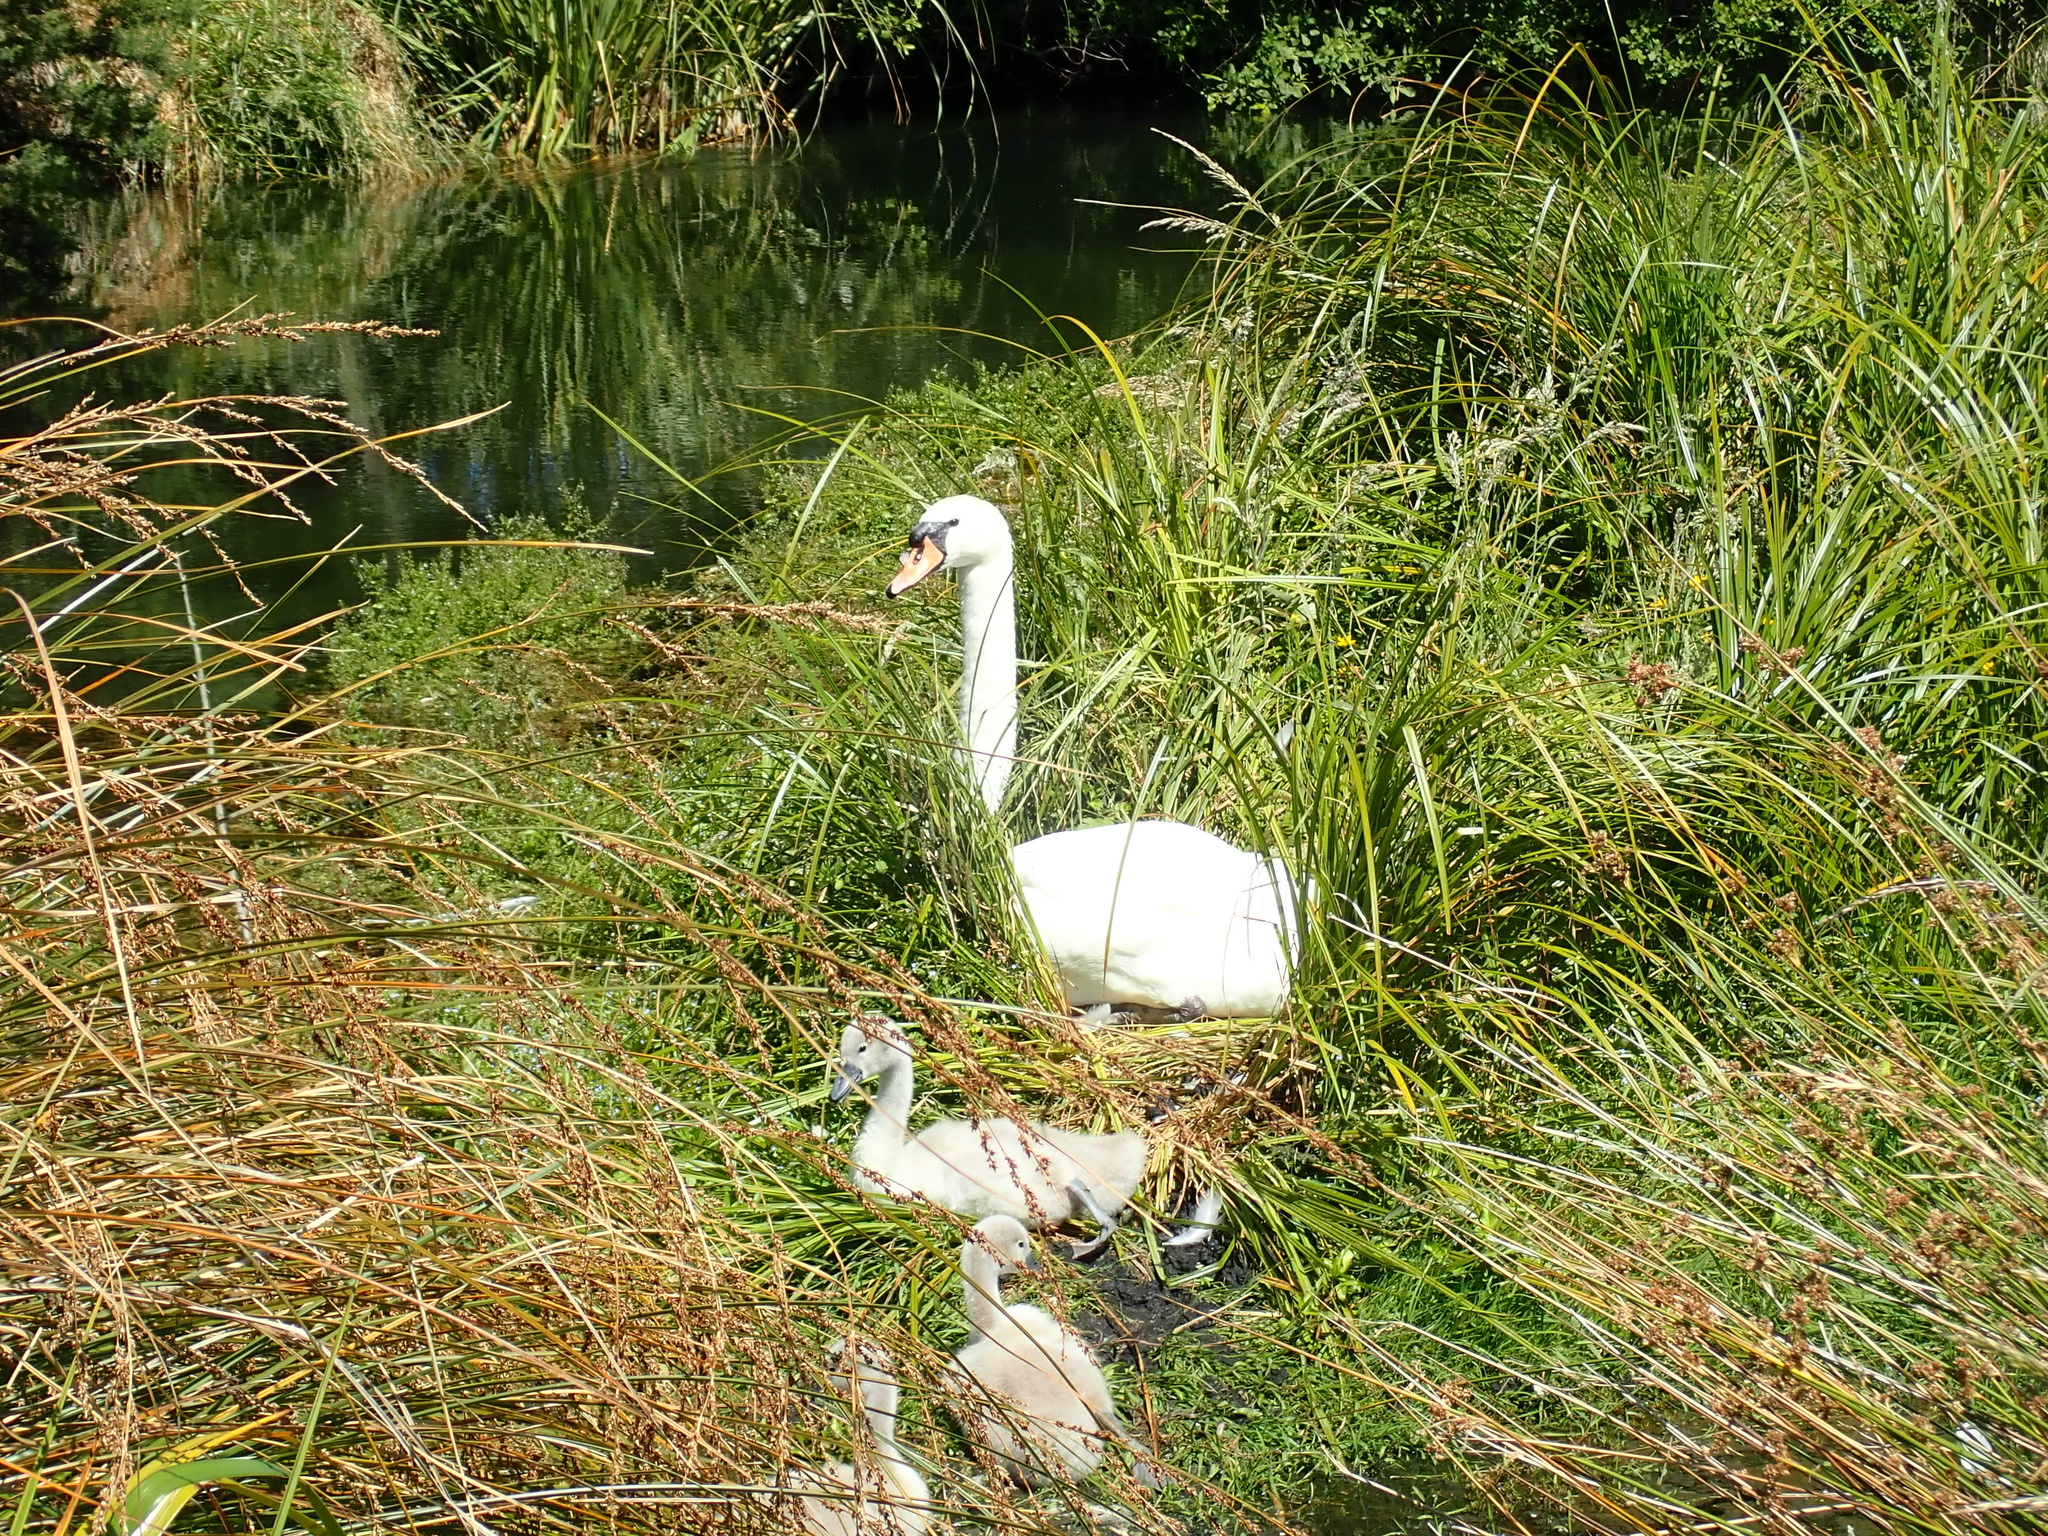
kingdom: Animalia
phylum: Chordata
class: Aves
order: Anseriformes
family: Anatidae
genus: Cygnus
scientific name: Cygnus olor
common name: Mute swan
